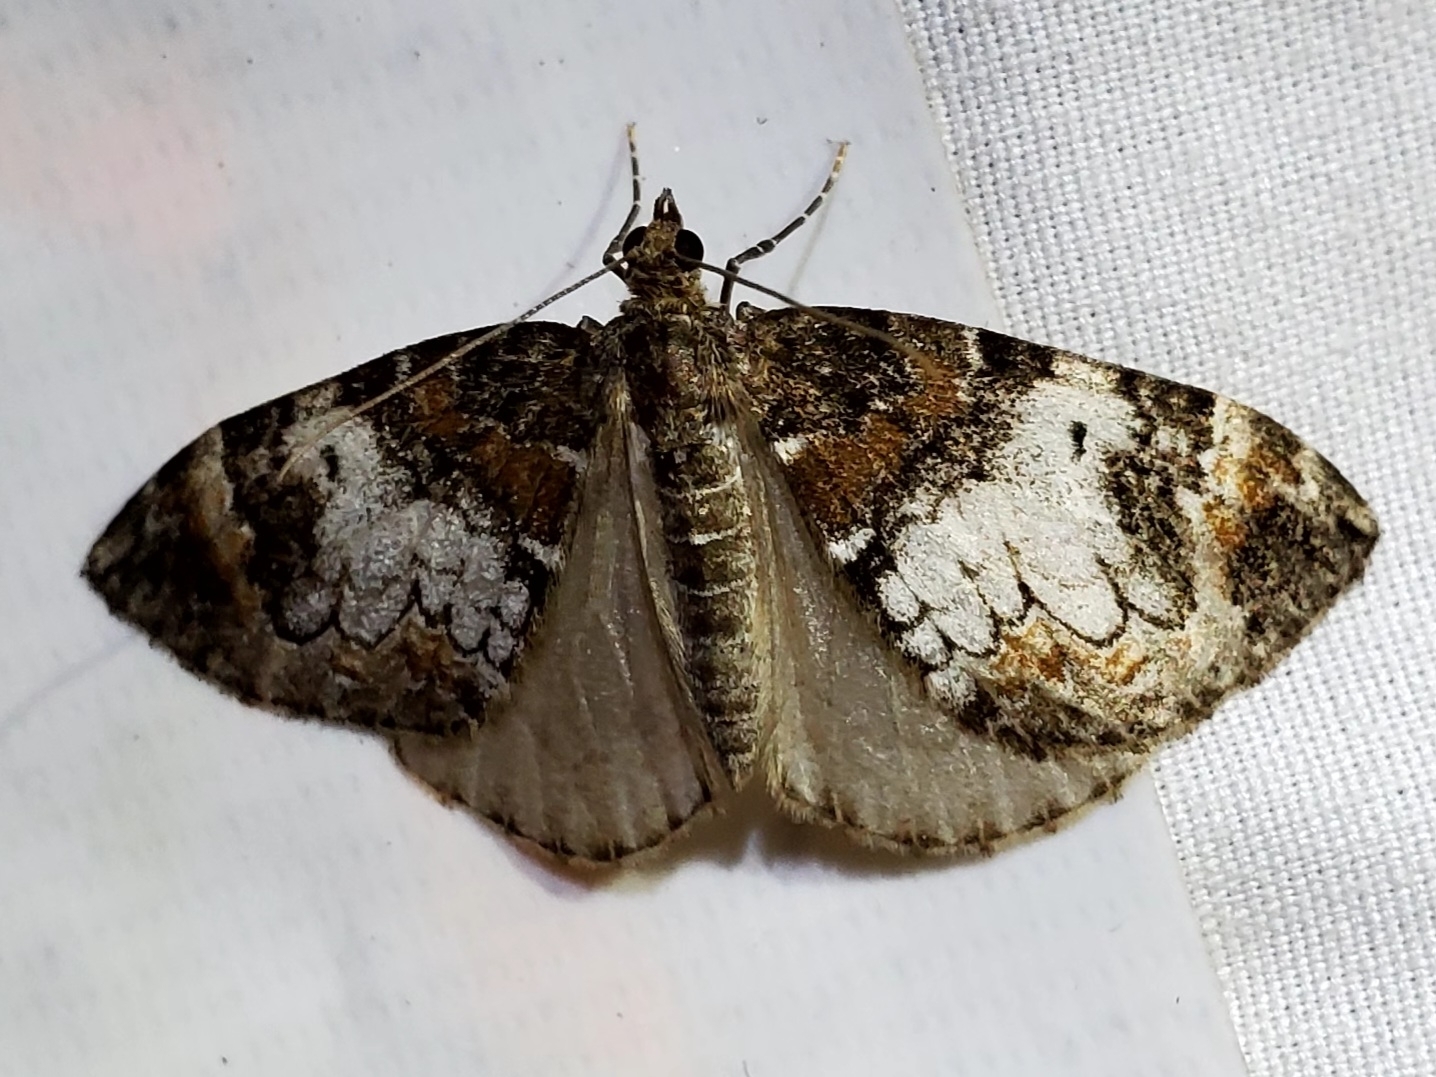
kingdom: Animalia
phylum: Arthropoda
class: Insecta
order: Lepidoptera
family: Geometridae
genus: Dysstroma
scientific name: Dysstroma truncata
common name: Common marbled carpet
